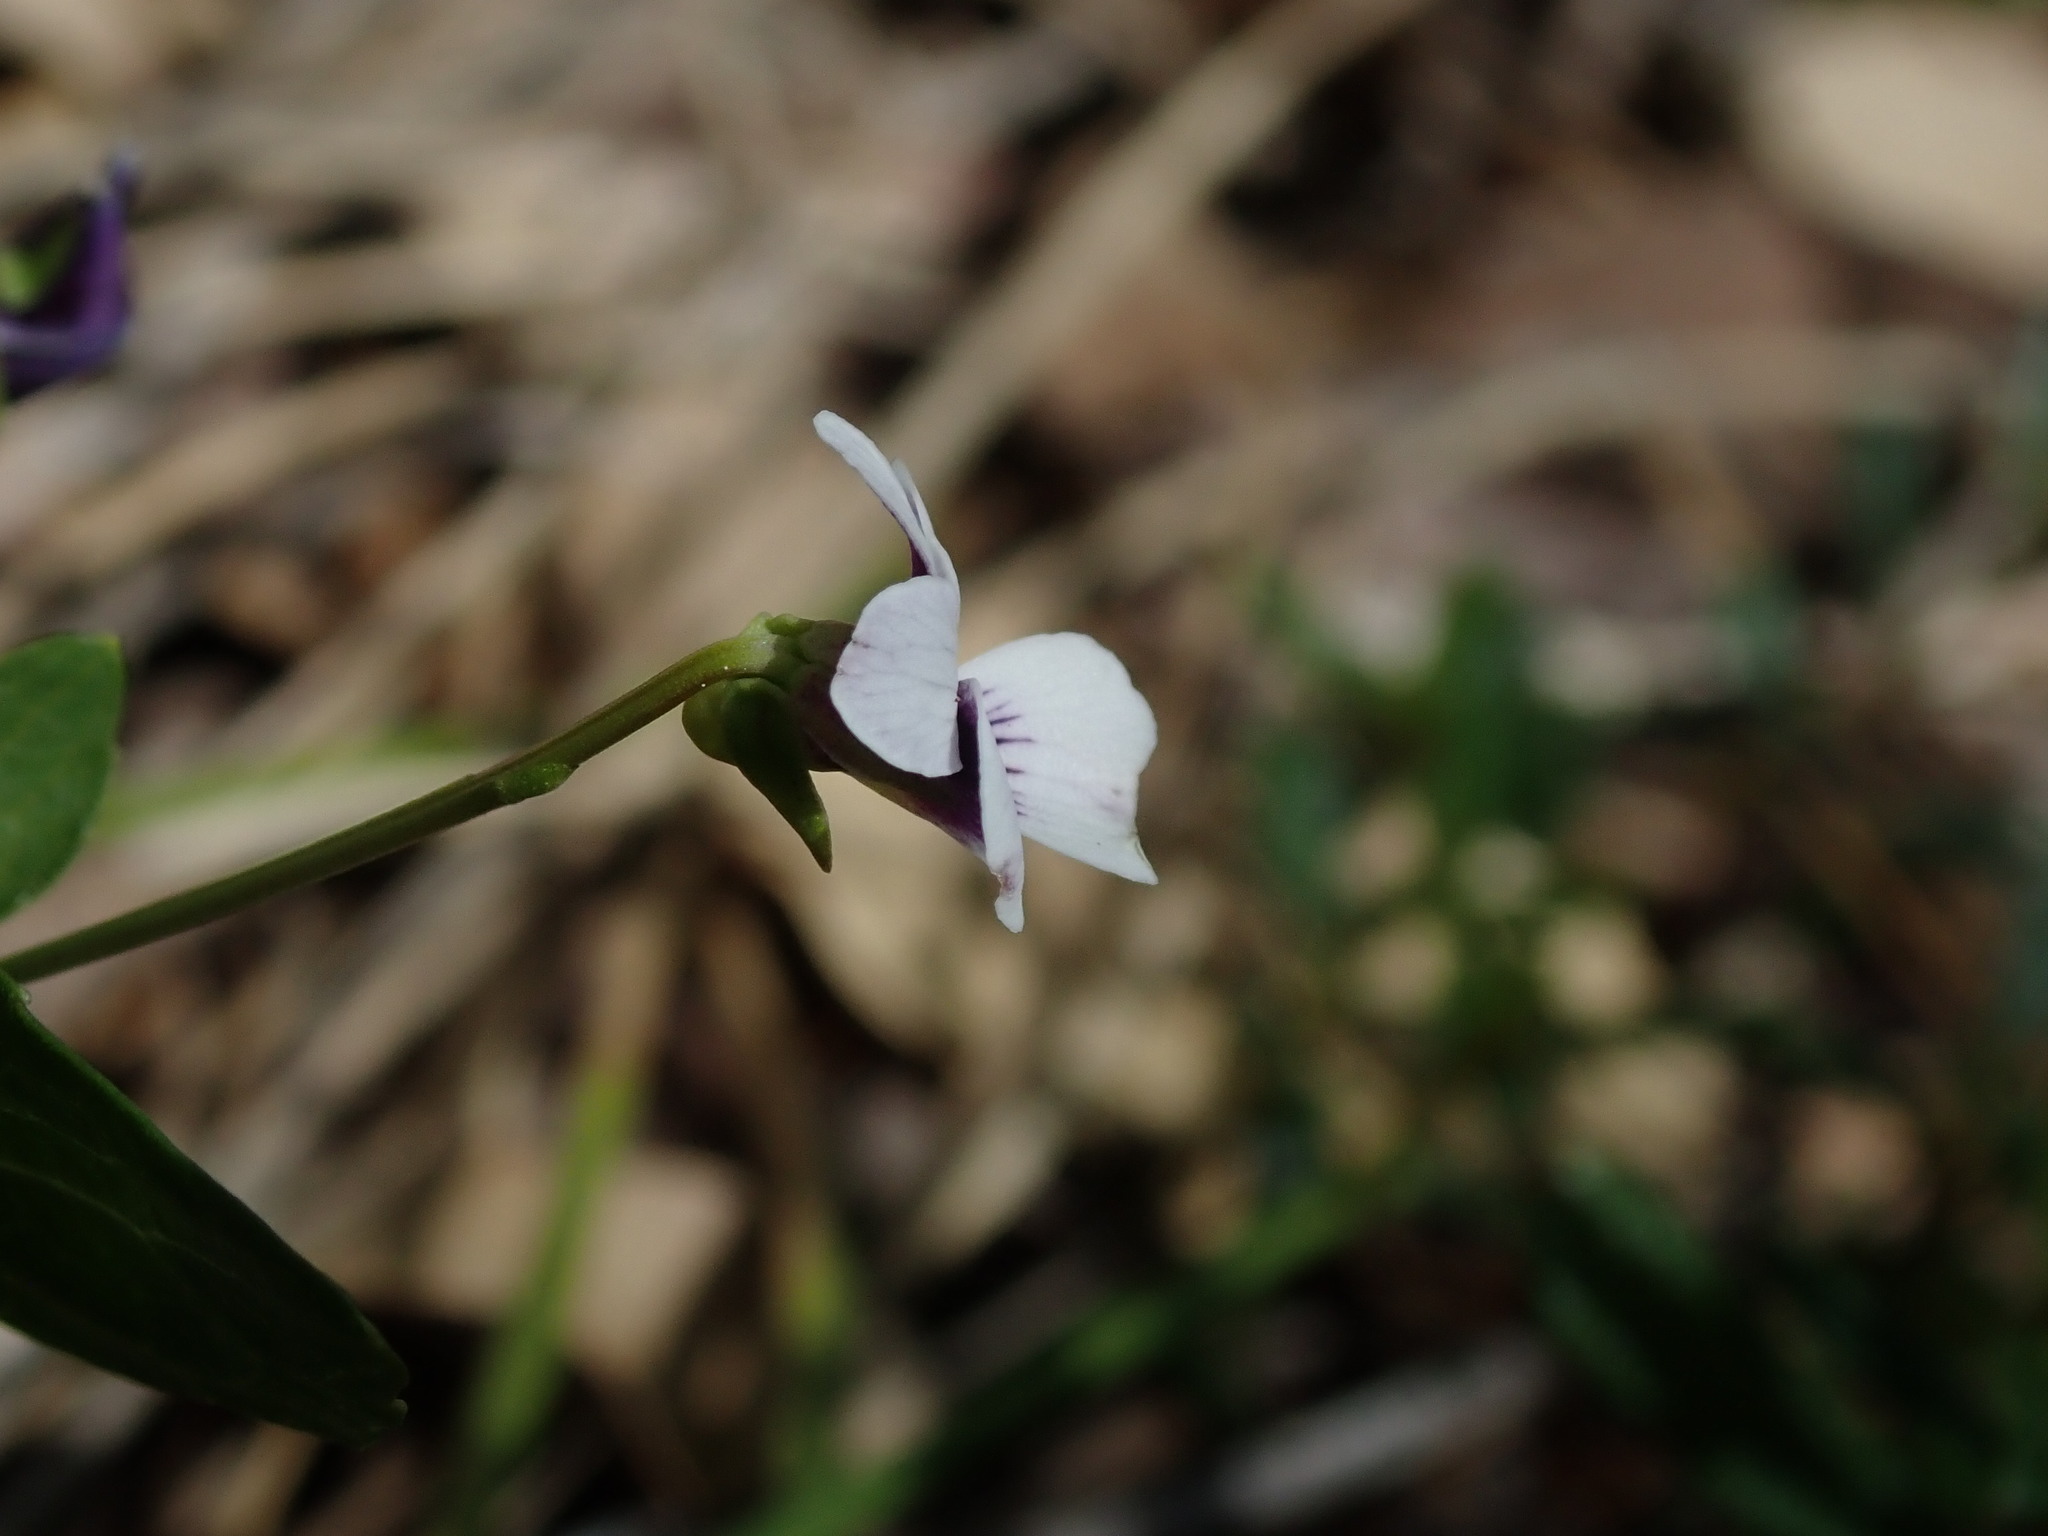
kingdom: Plantae
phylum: Tracheophyta
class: Magnoliopsida
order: Malpighiales
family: Violaceae
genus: Viola
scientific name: Viola cuneata
